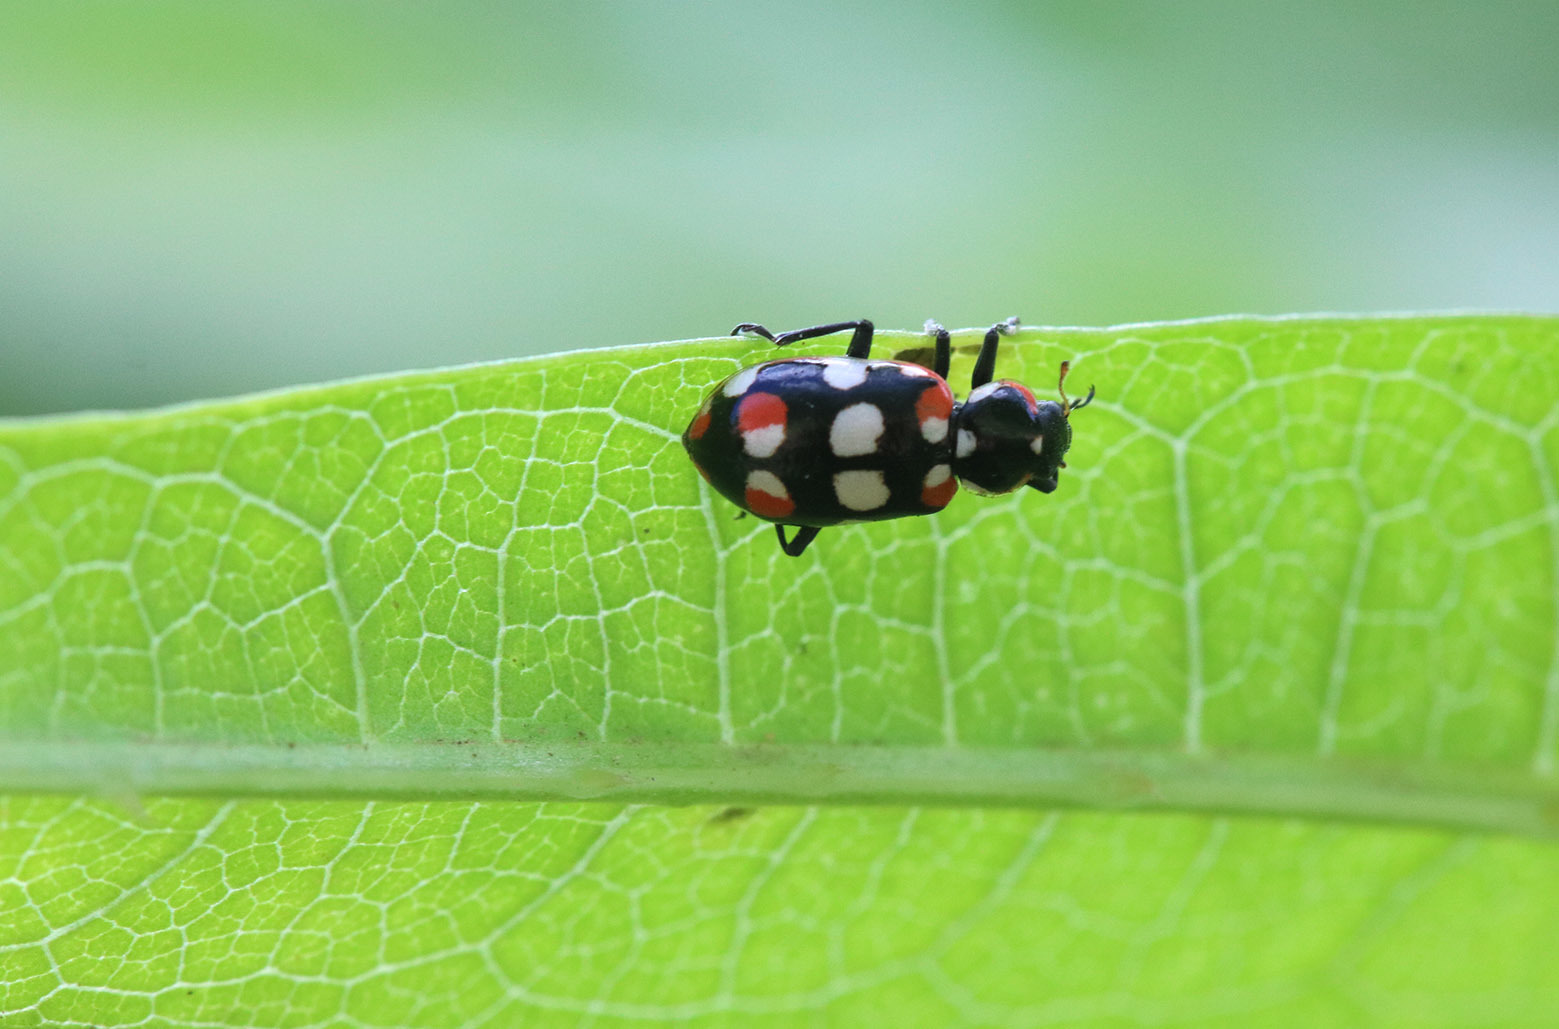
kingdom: Animalia
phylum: Arthropoda
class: Insecta
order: Coleoptera
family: Coccinellidae
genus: Eriopis
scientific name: Eriopis connexa
